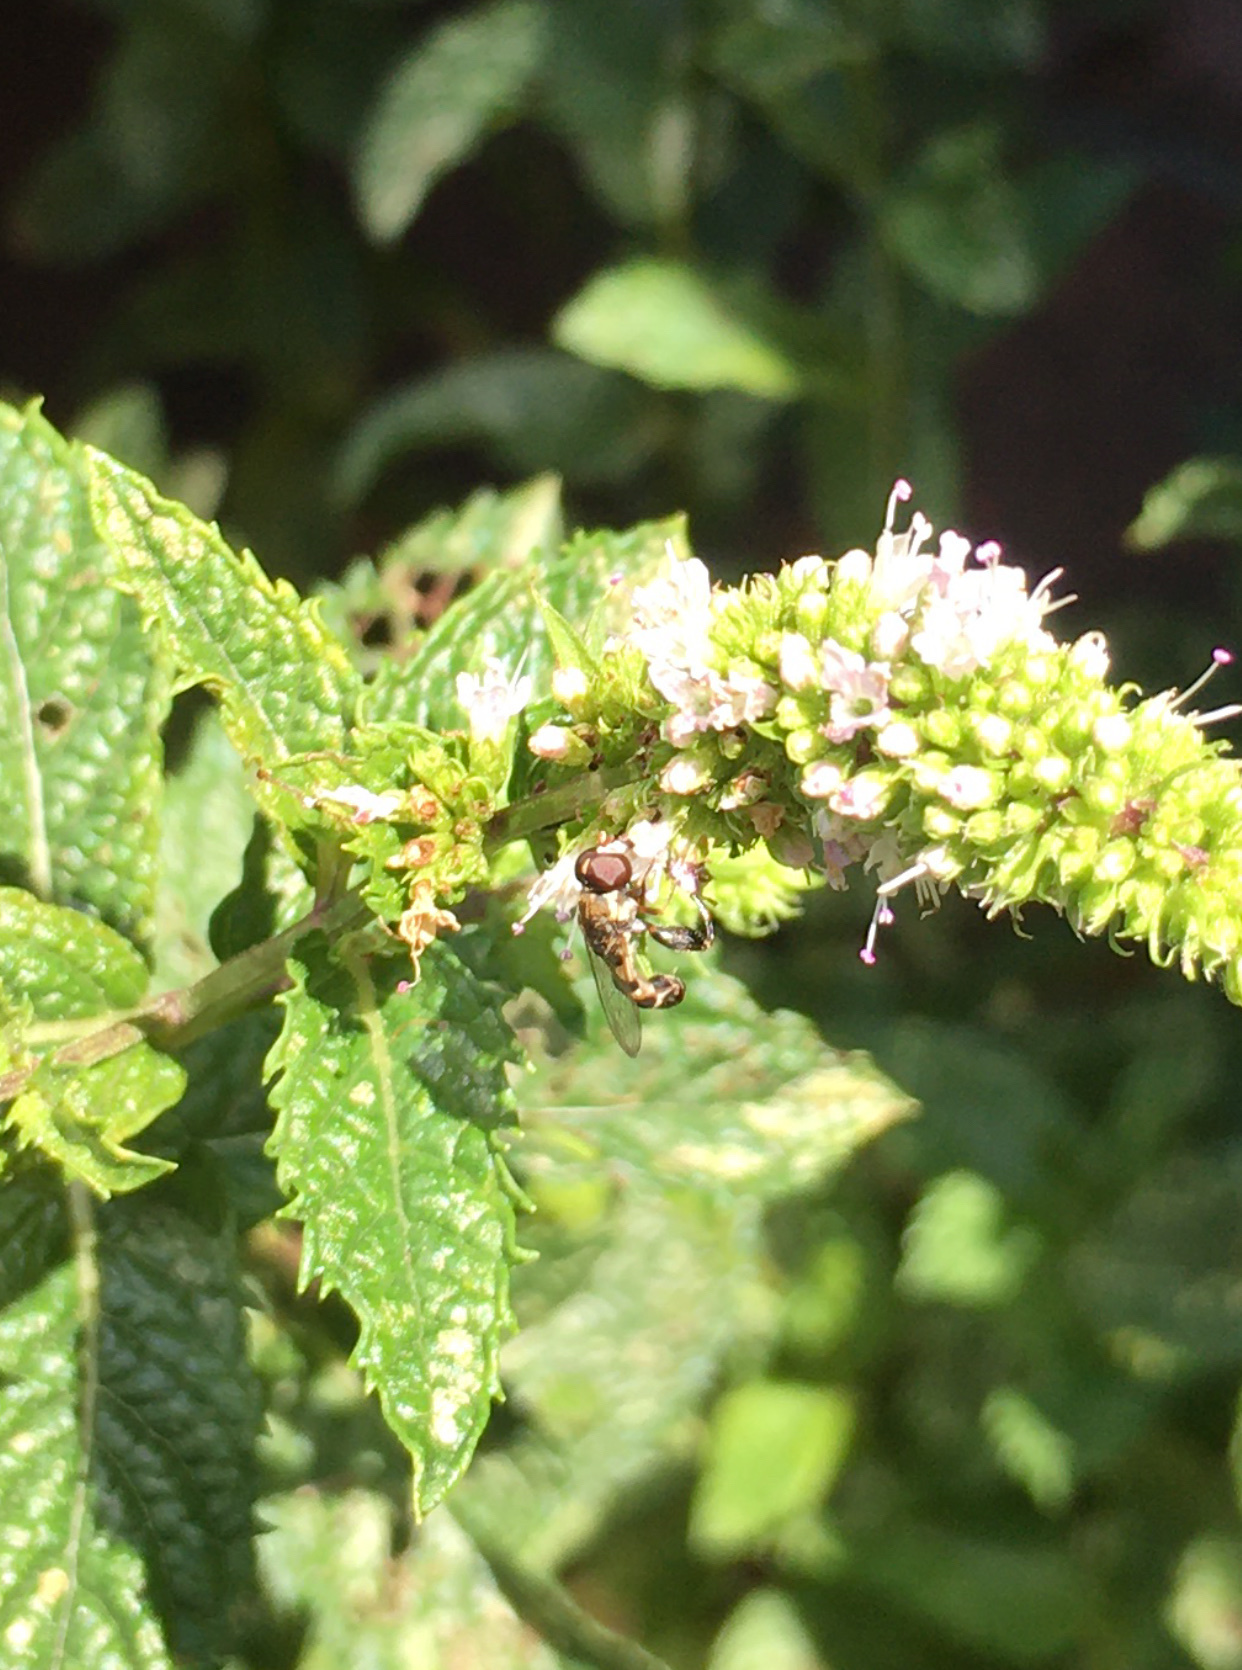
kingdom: Animalia
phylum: Arthropoda
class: Insecta
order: Diptera
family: Syrphidae
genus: Syritta
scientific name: Syritta pipiens
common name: Hover fly
